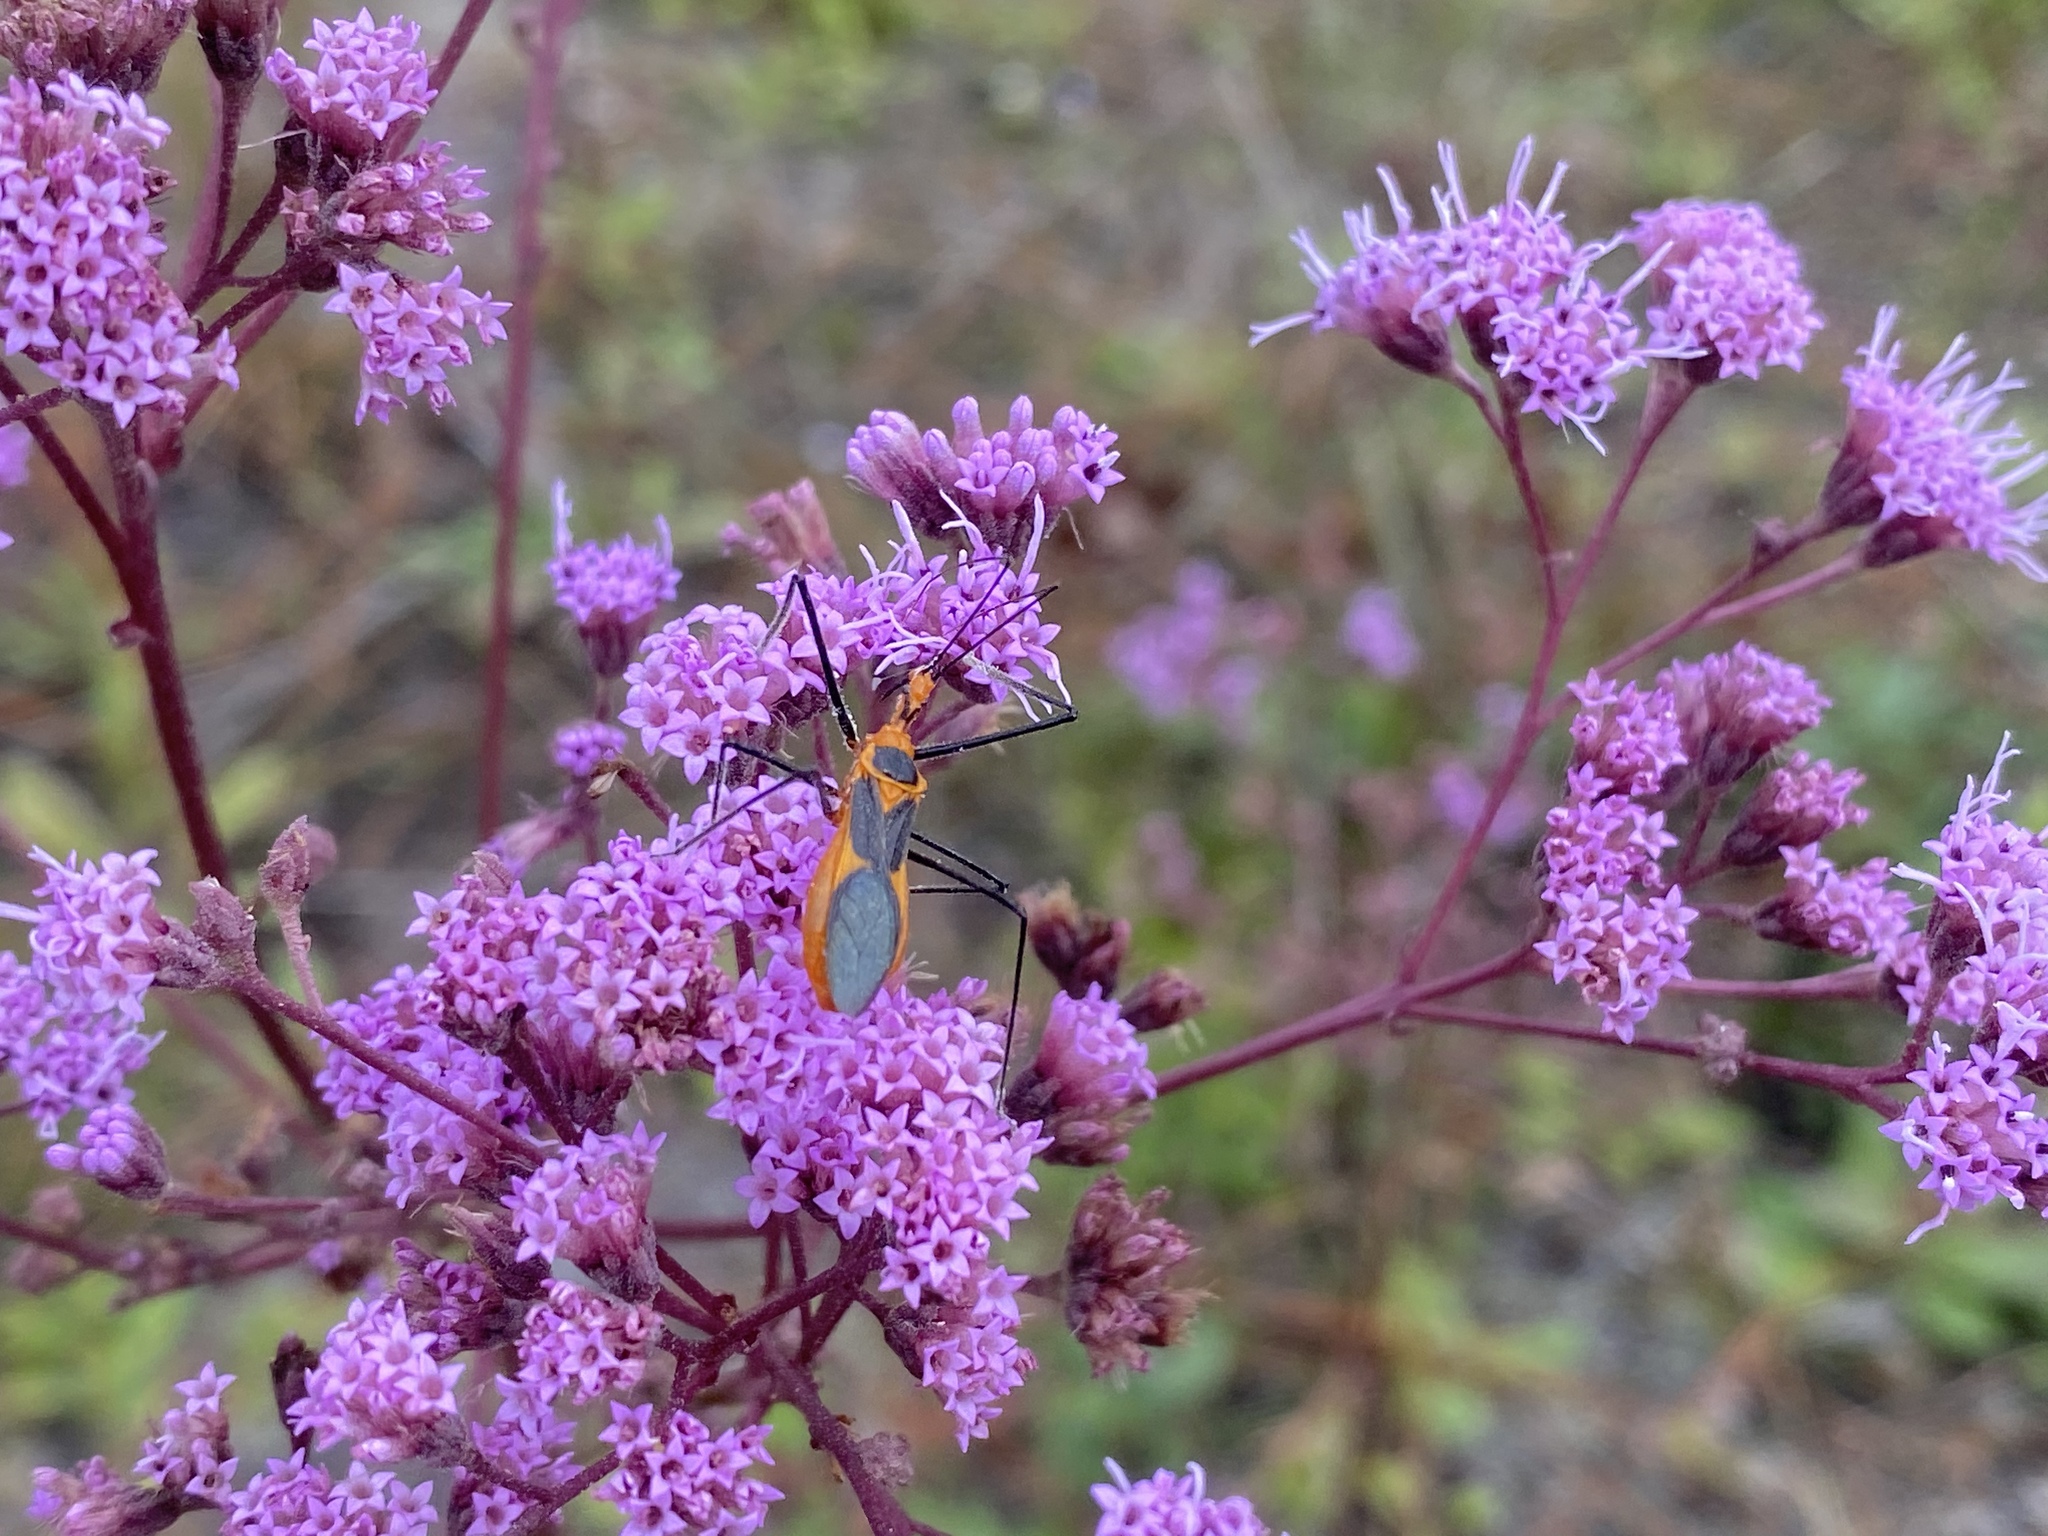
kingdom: Plantae
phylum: Tracheophyta
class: Magnoliopsida
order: Asterales
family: Asteraceae
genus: Carphephorus
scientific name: Carphephorus odoratissimus
